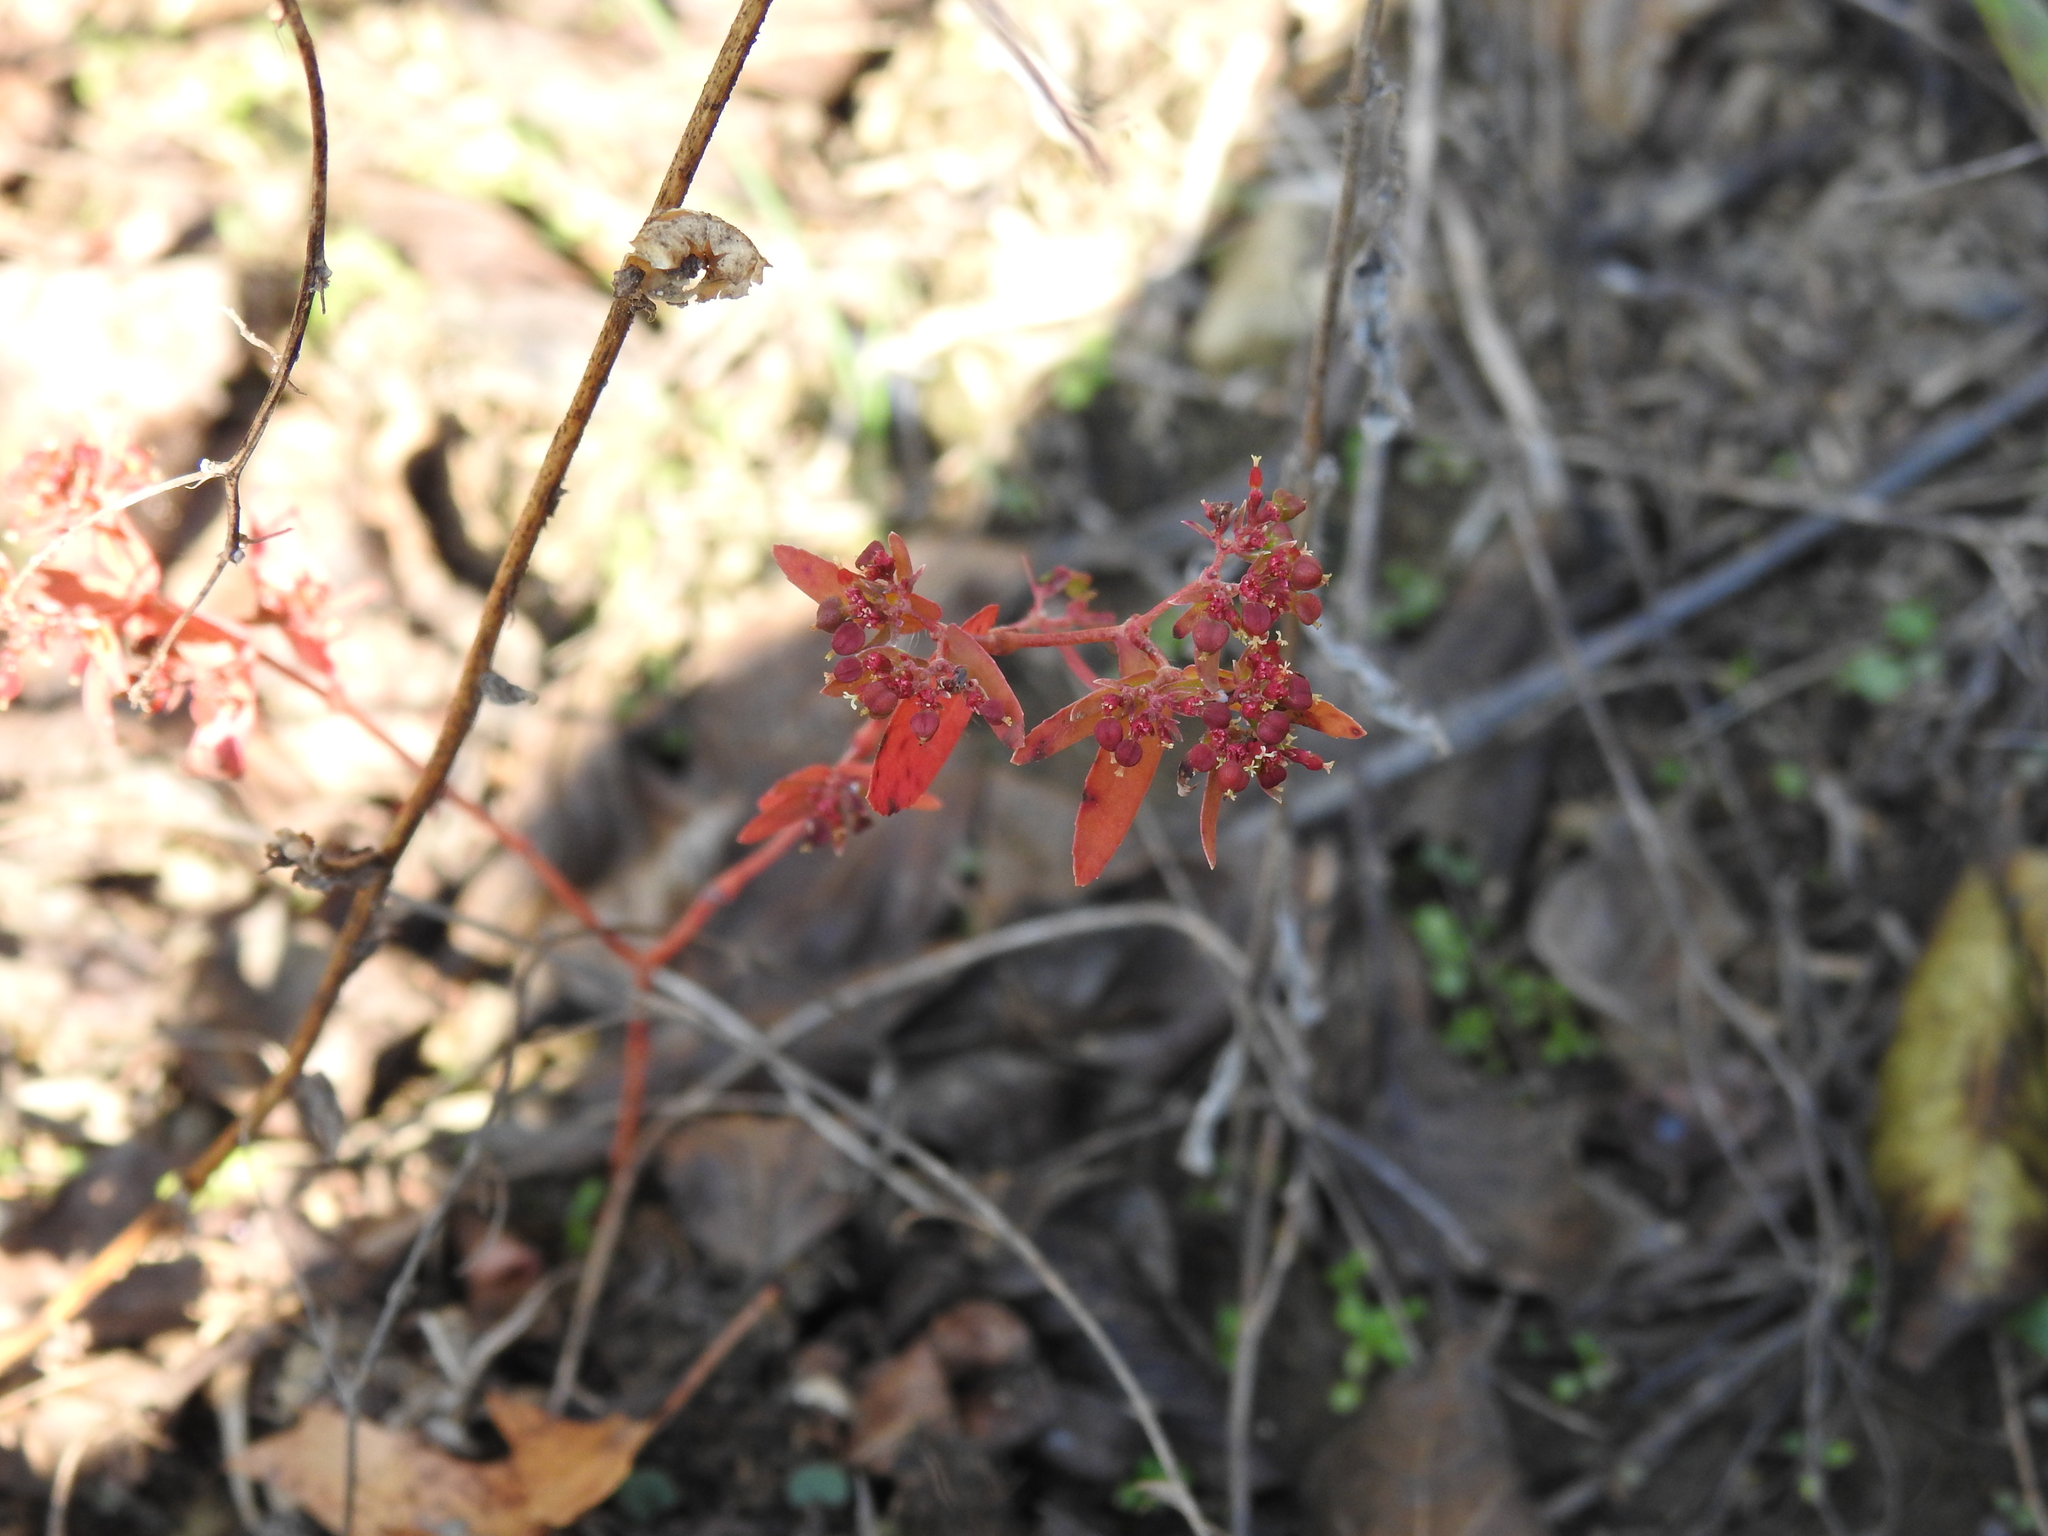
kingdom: Plantae
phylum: Tracheophyta
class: Magnoliopsida
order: Malpighiales
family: Euphorbiaceae
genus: Euphorbia
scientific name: Euphorbia nutans
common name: Eyebane
